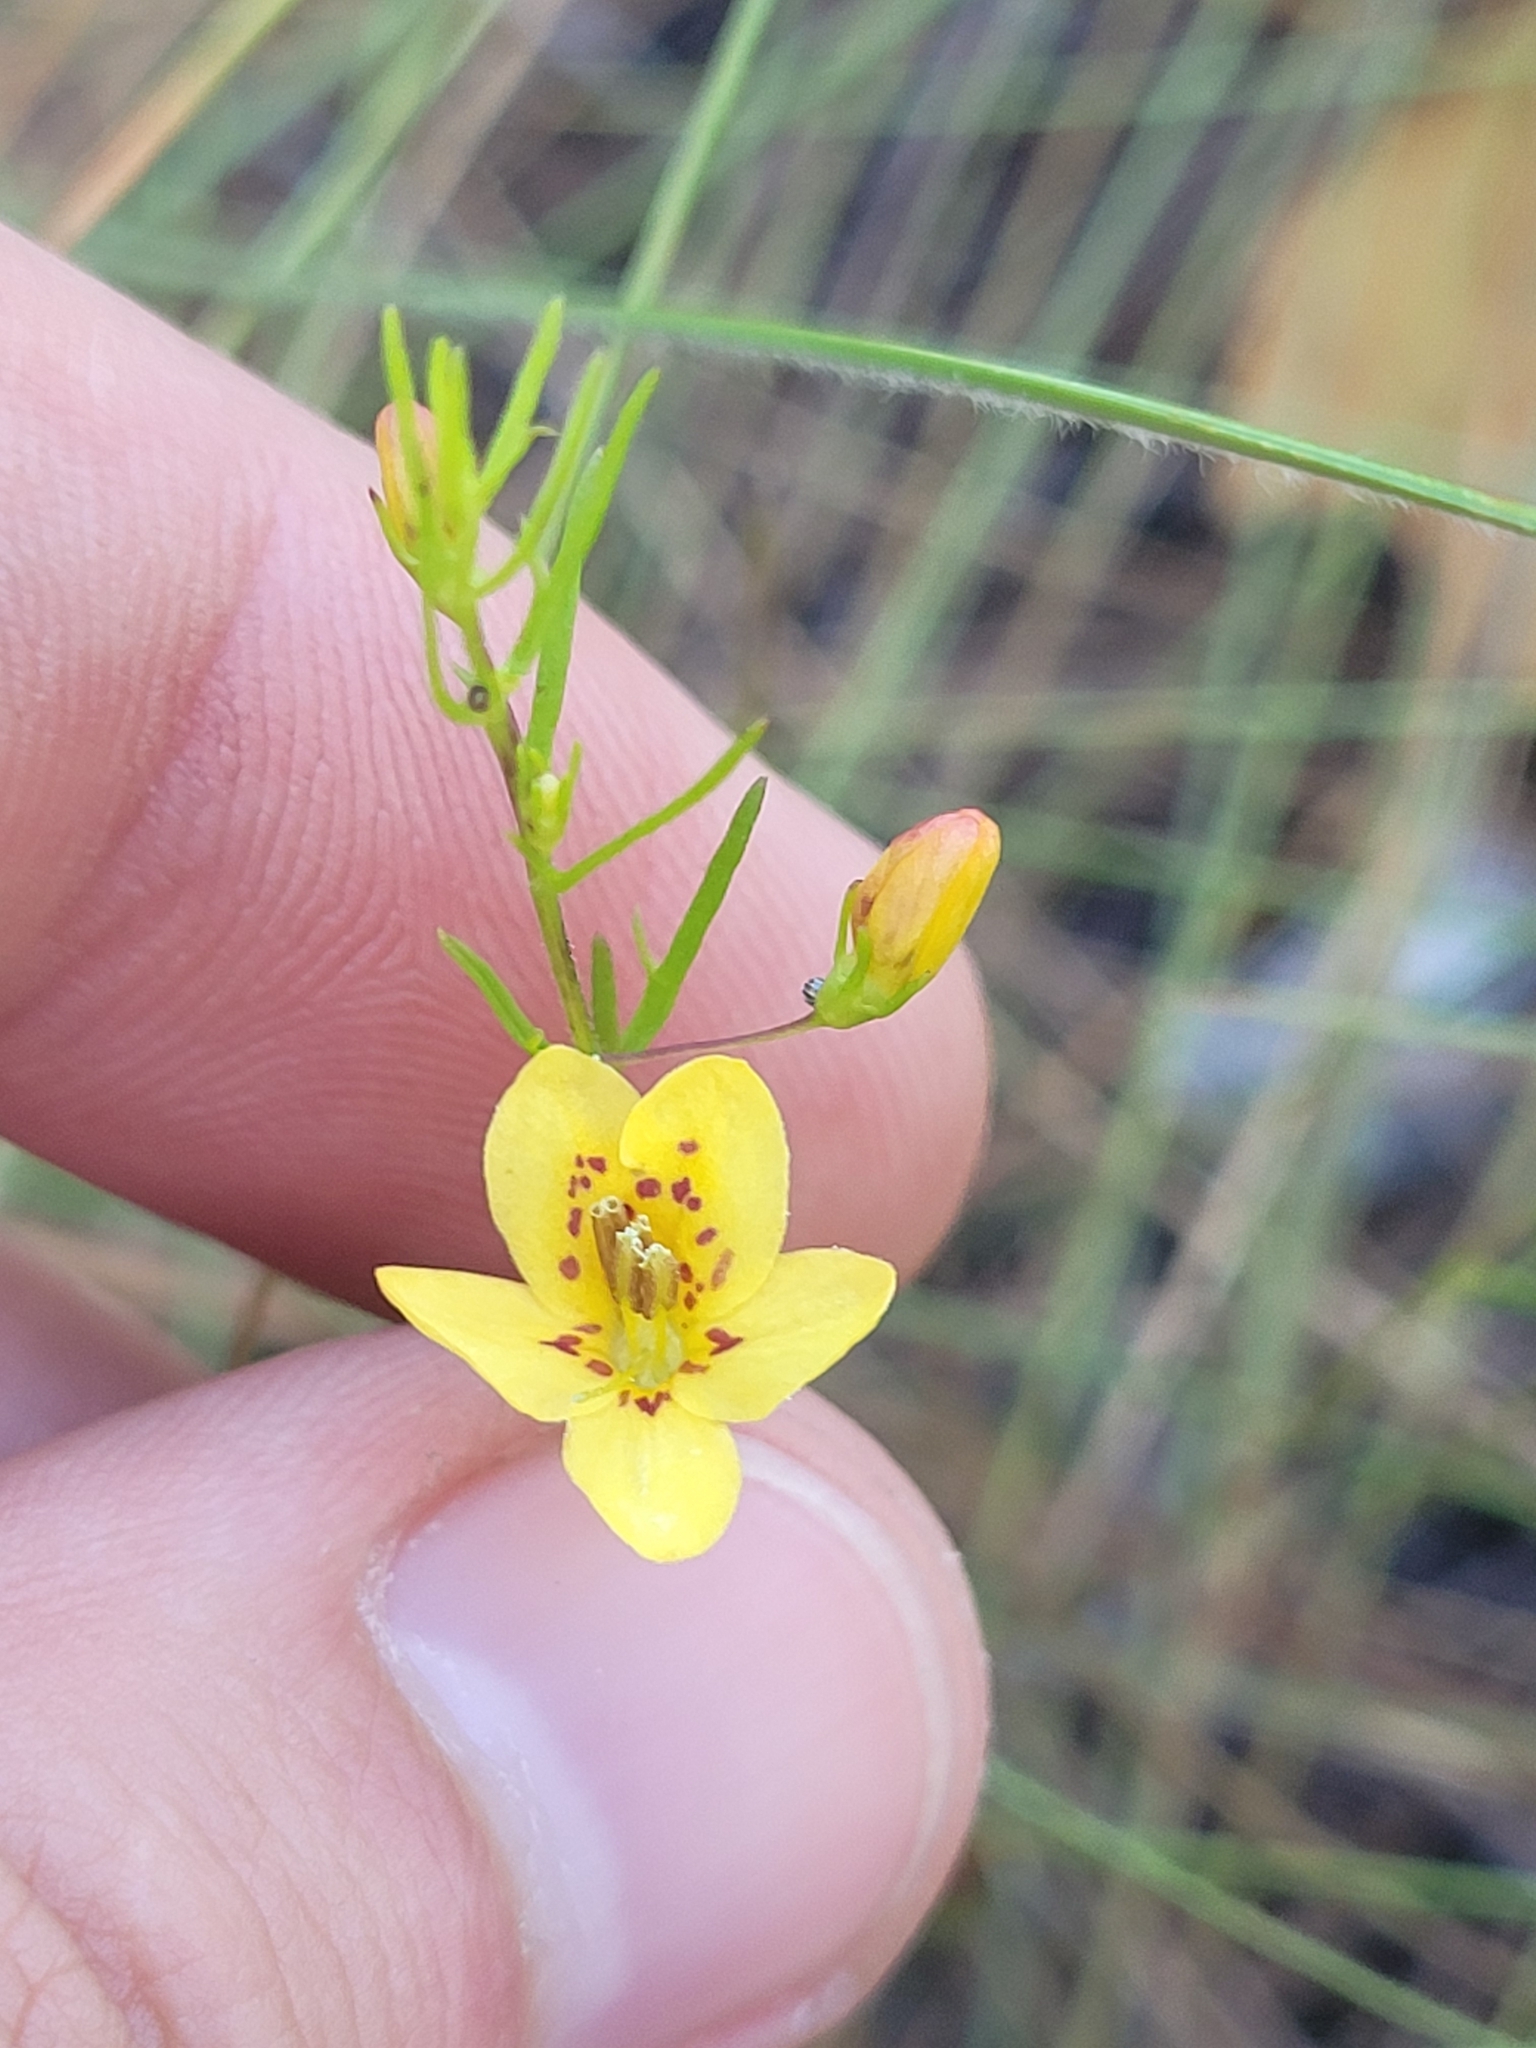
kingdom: Plantae
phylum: Tracheophyta
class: Magnoliopsida
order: Lamiales
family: Orobanchaceae
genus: Seymeria
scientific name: Seymeria cassioides
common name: Yaupon black-senna
